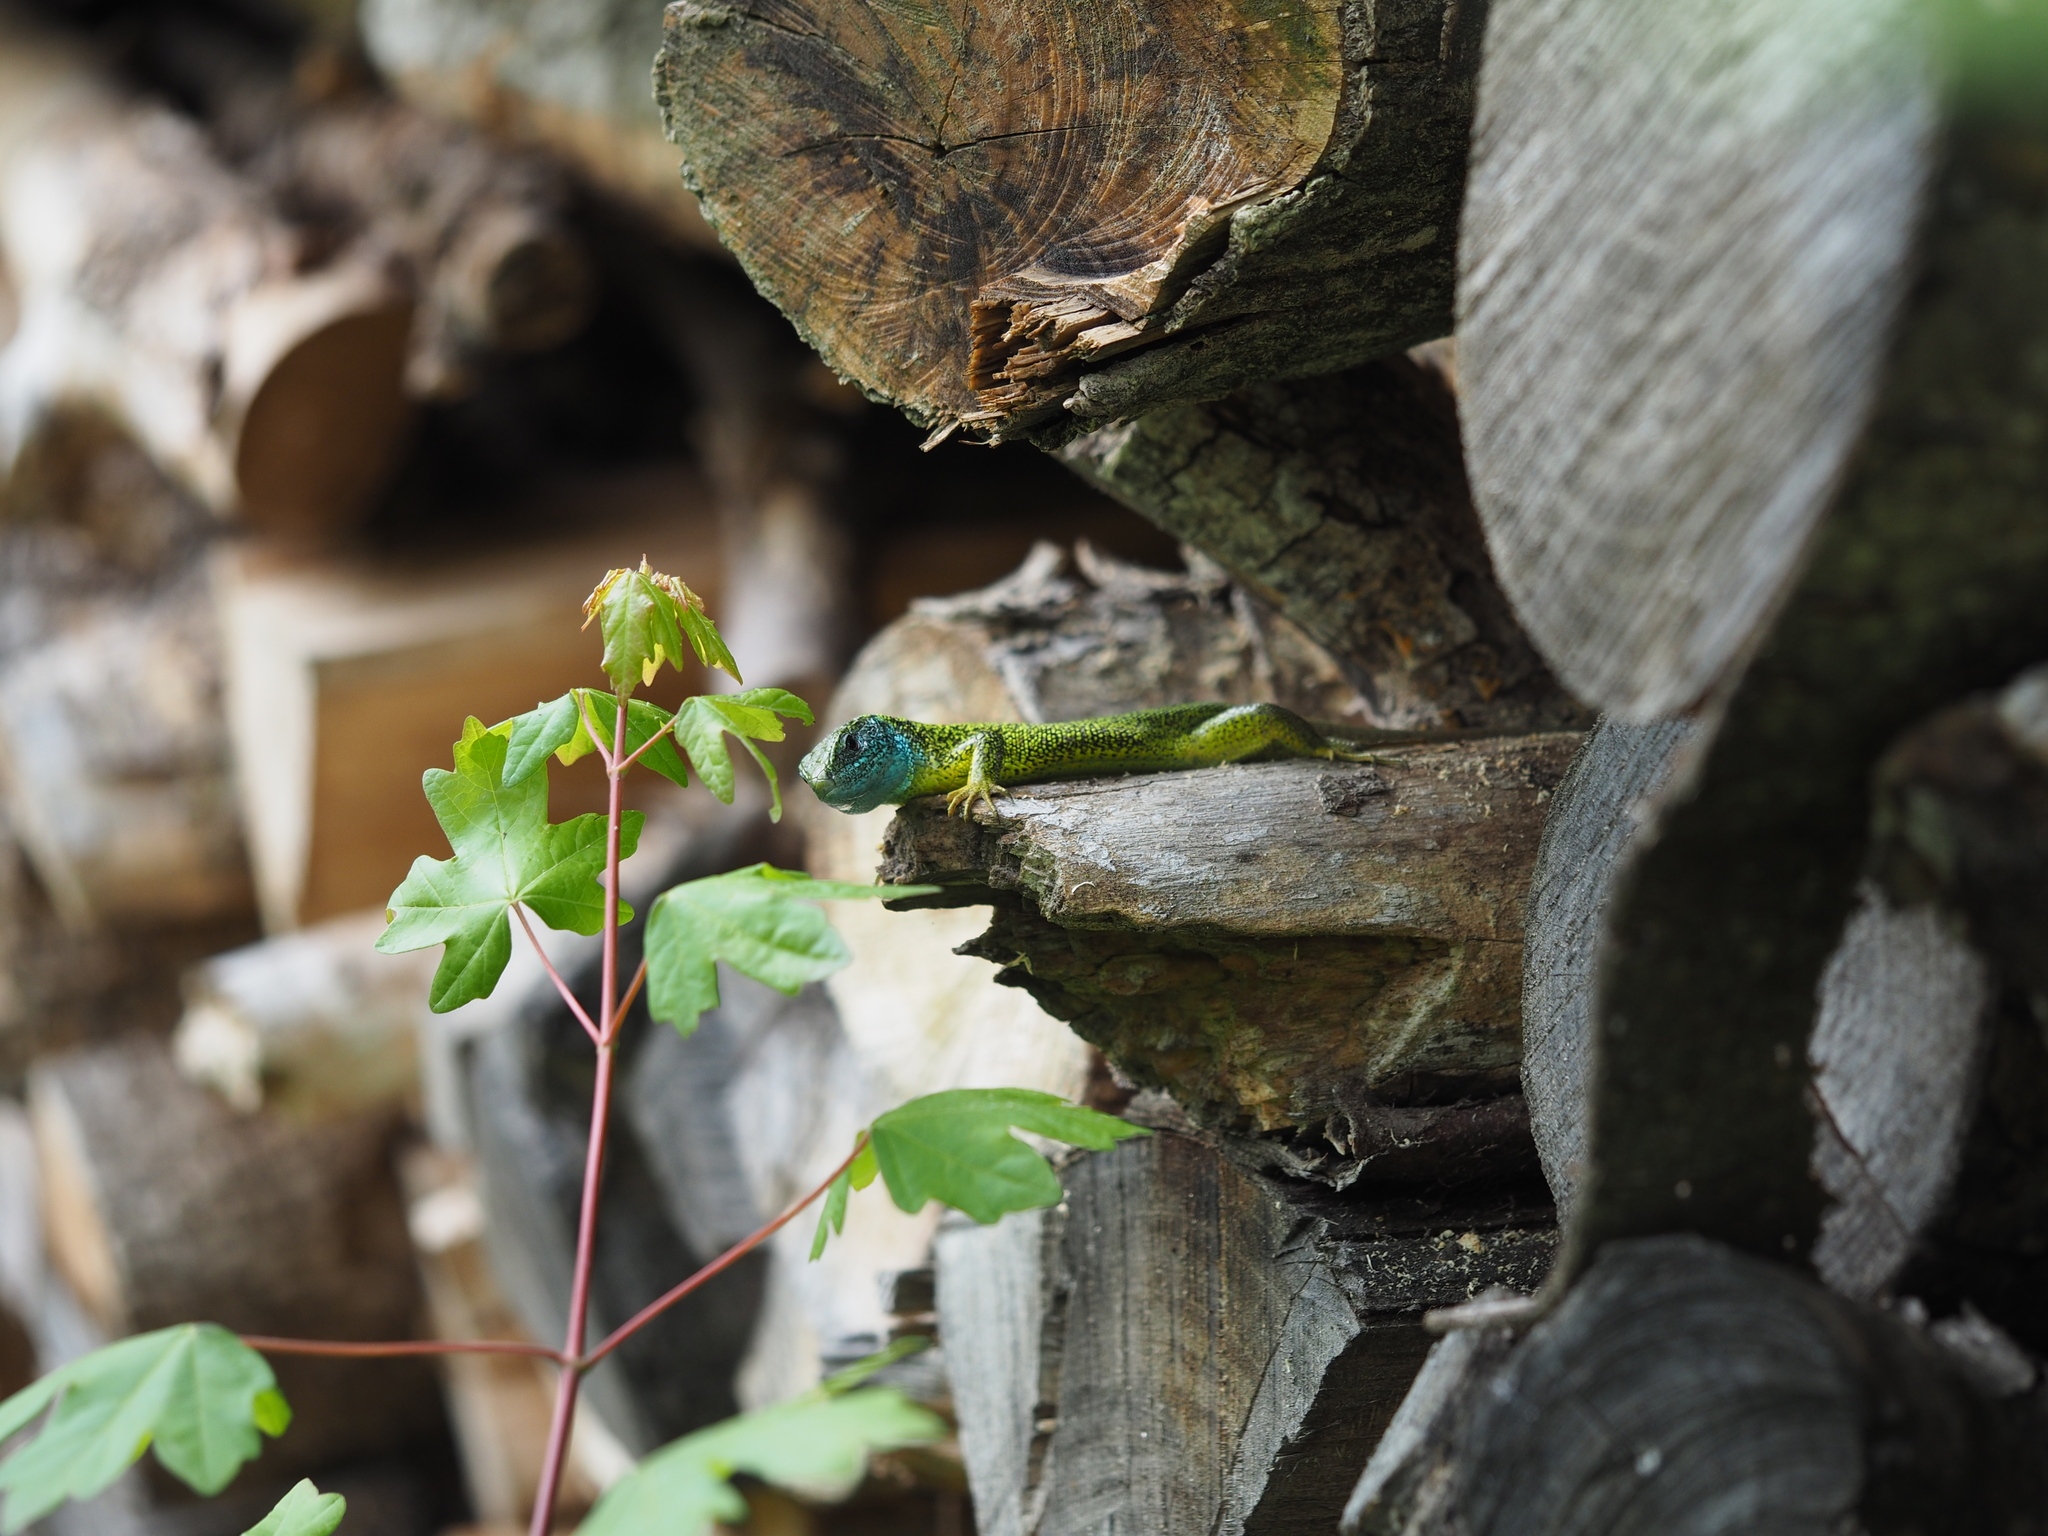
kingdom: Animalia
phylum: Chordata
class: Squamata
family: Lacertidae
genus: Lacerta
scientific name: Lacerta viridis
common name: European green lizard
